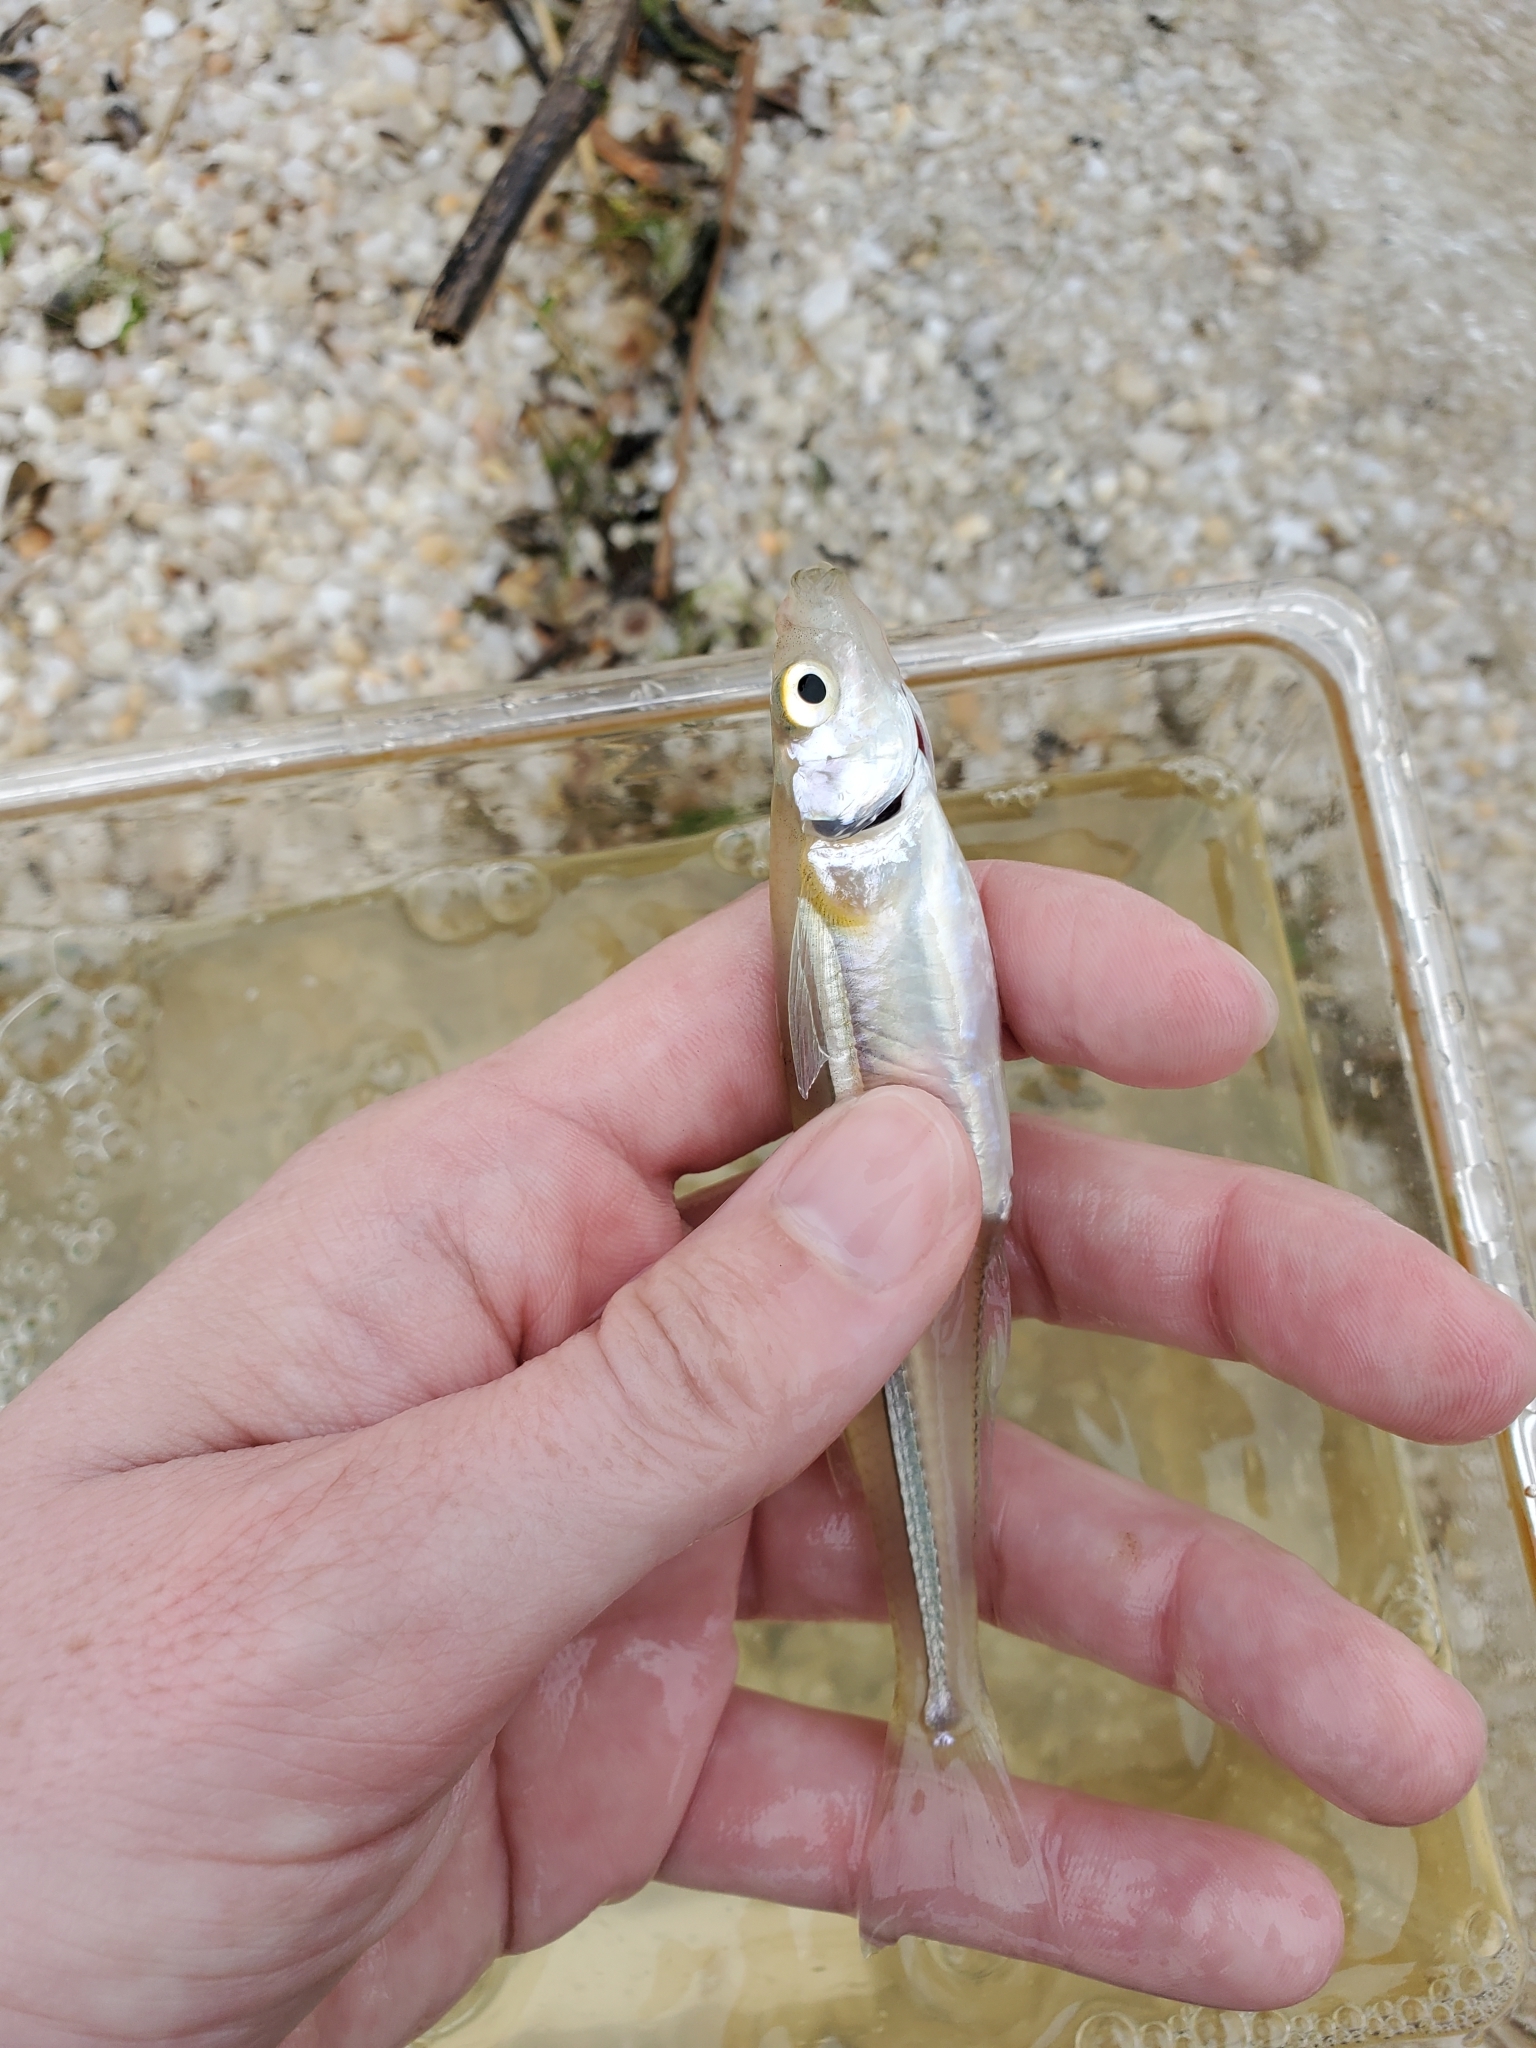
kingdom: Animalia
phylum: Chordata
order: Atheriniformes
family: Atherinopsidae
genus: Menidia
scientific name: Menidia menidia
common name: Atlantic silverside
